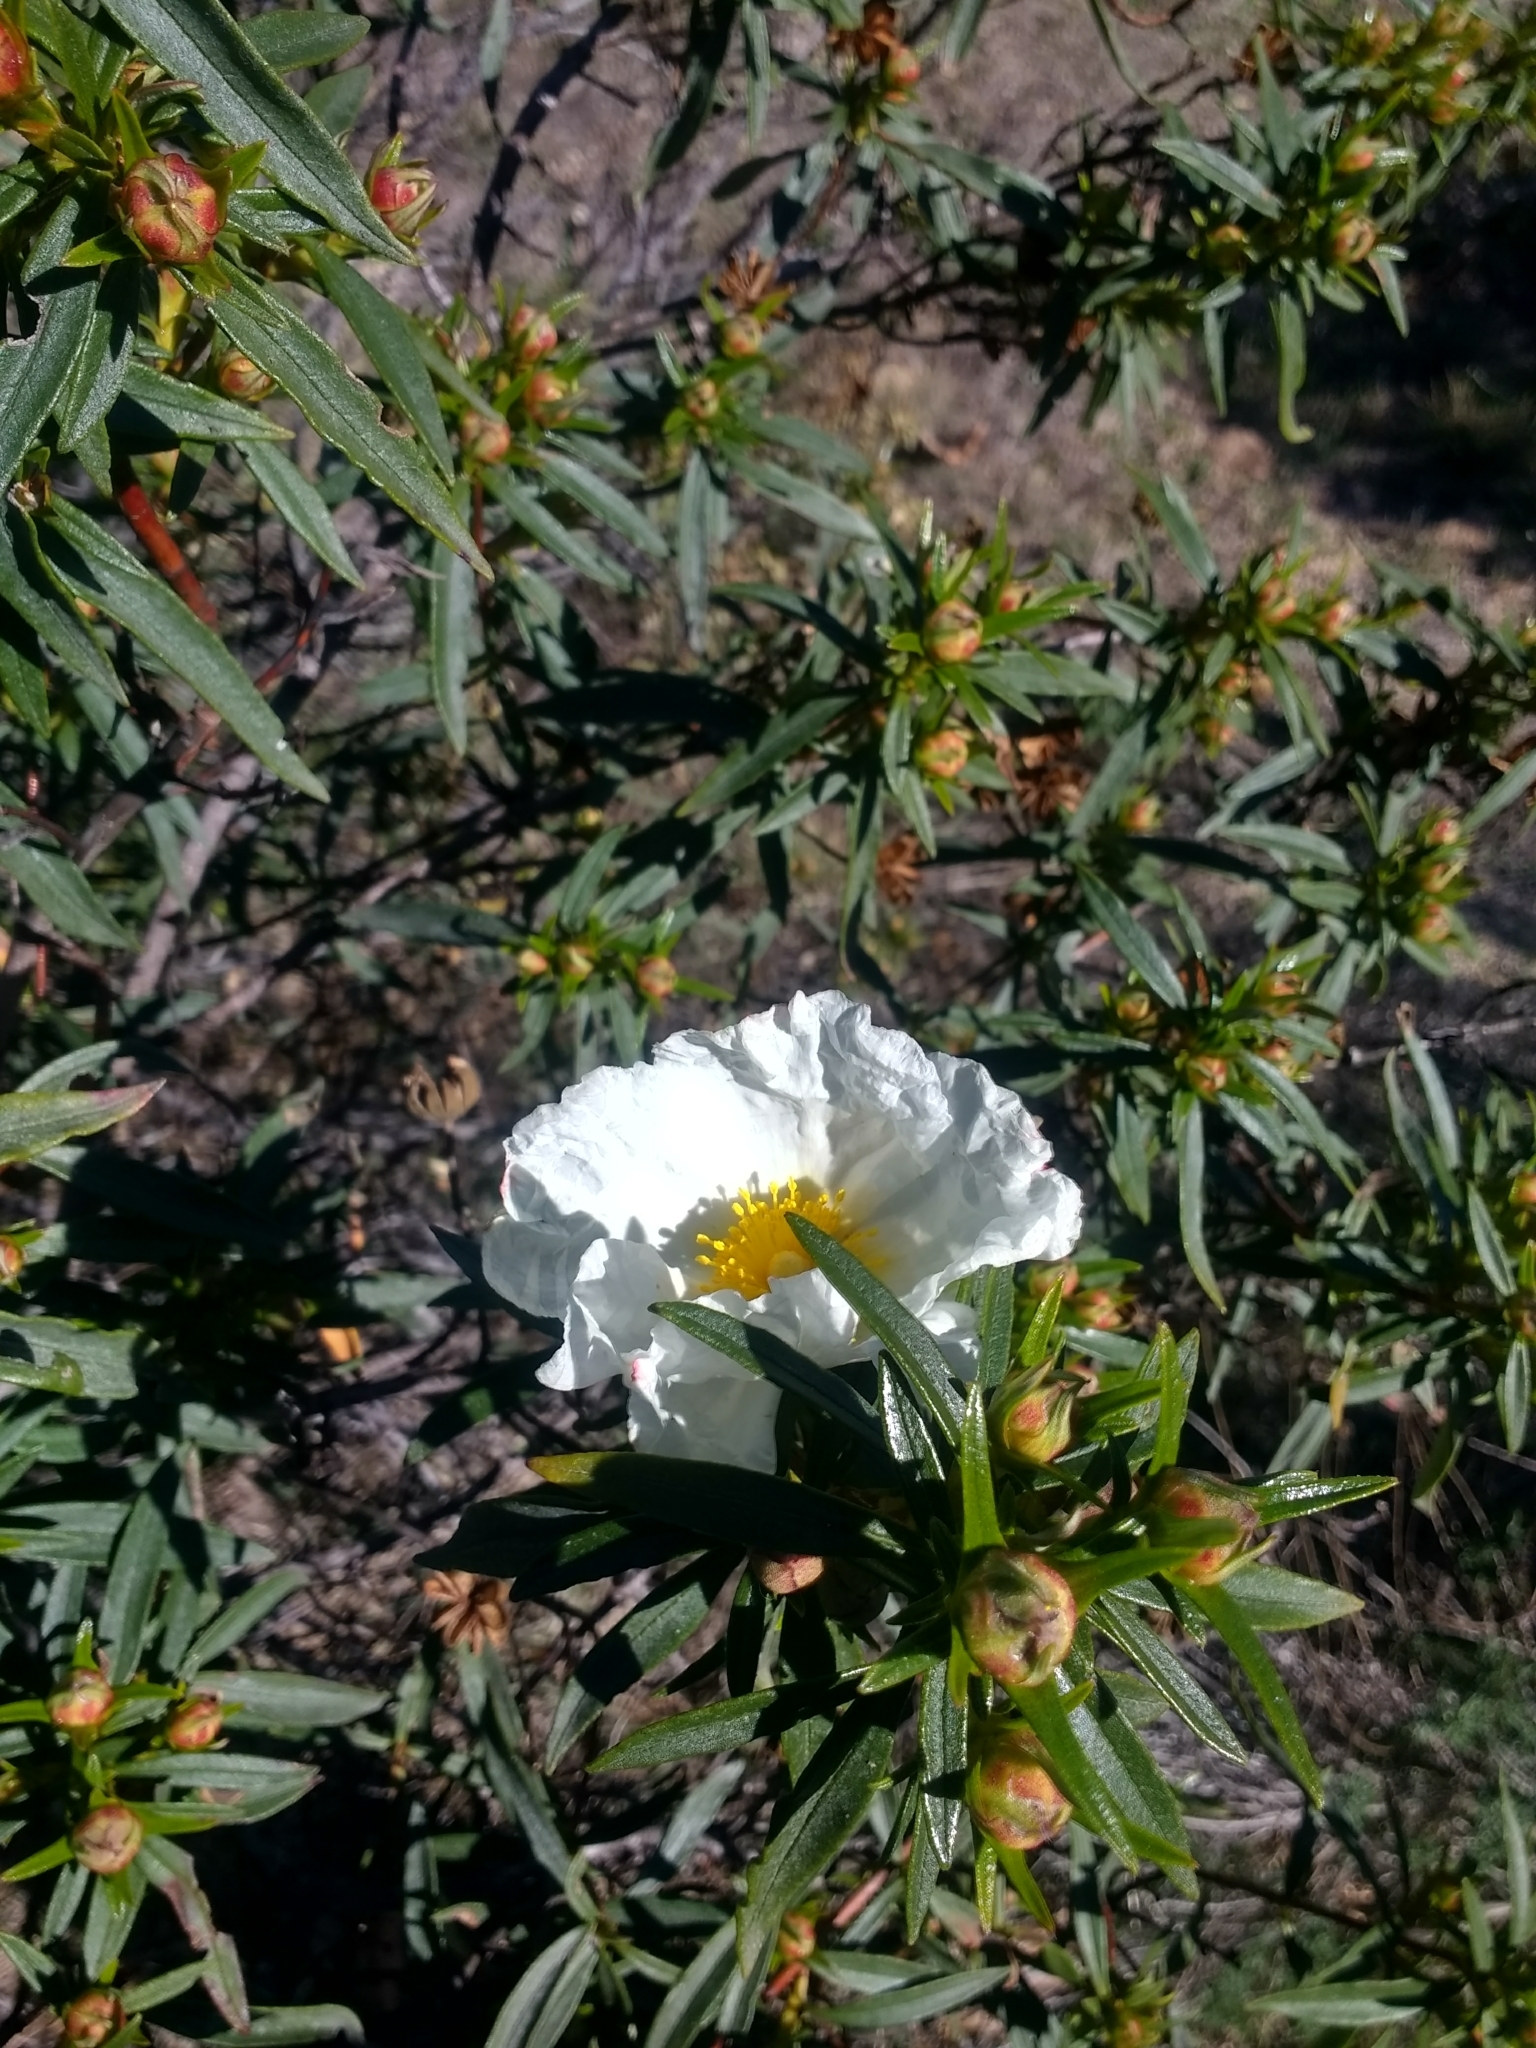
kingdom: Plantae
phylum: Tracheophyta
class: Magnoliopsida
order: Malvales
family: Cistaceae
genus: Cistus
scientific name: Cistus ladanifer
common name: Common gum cistus
